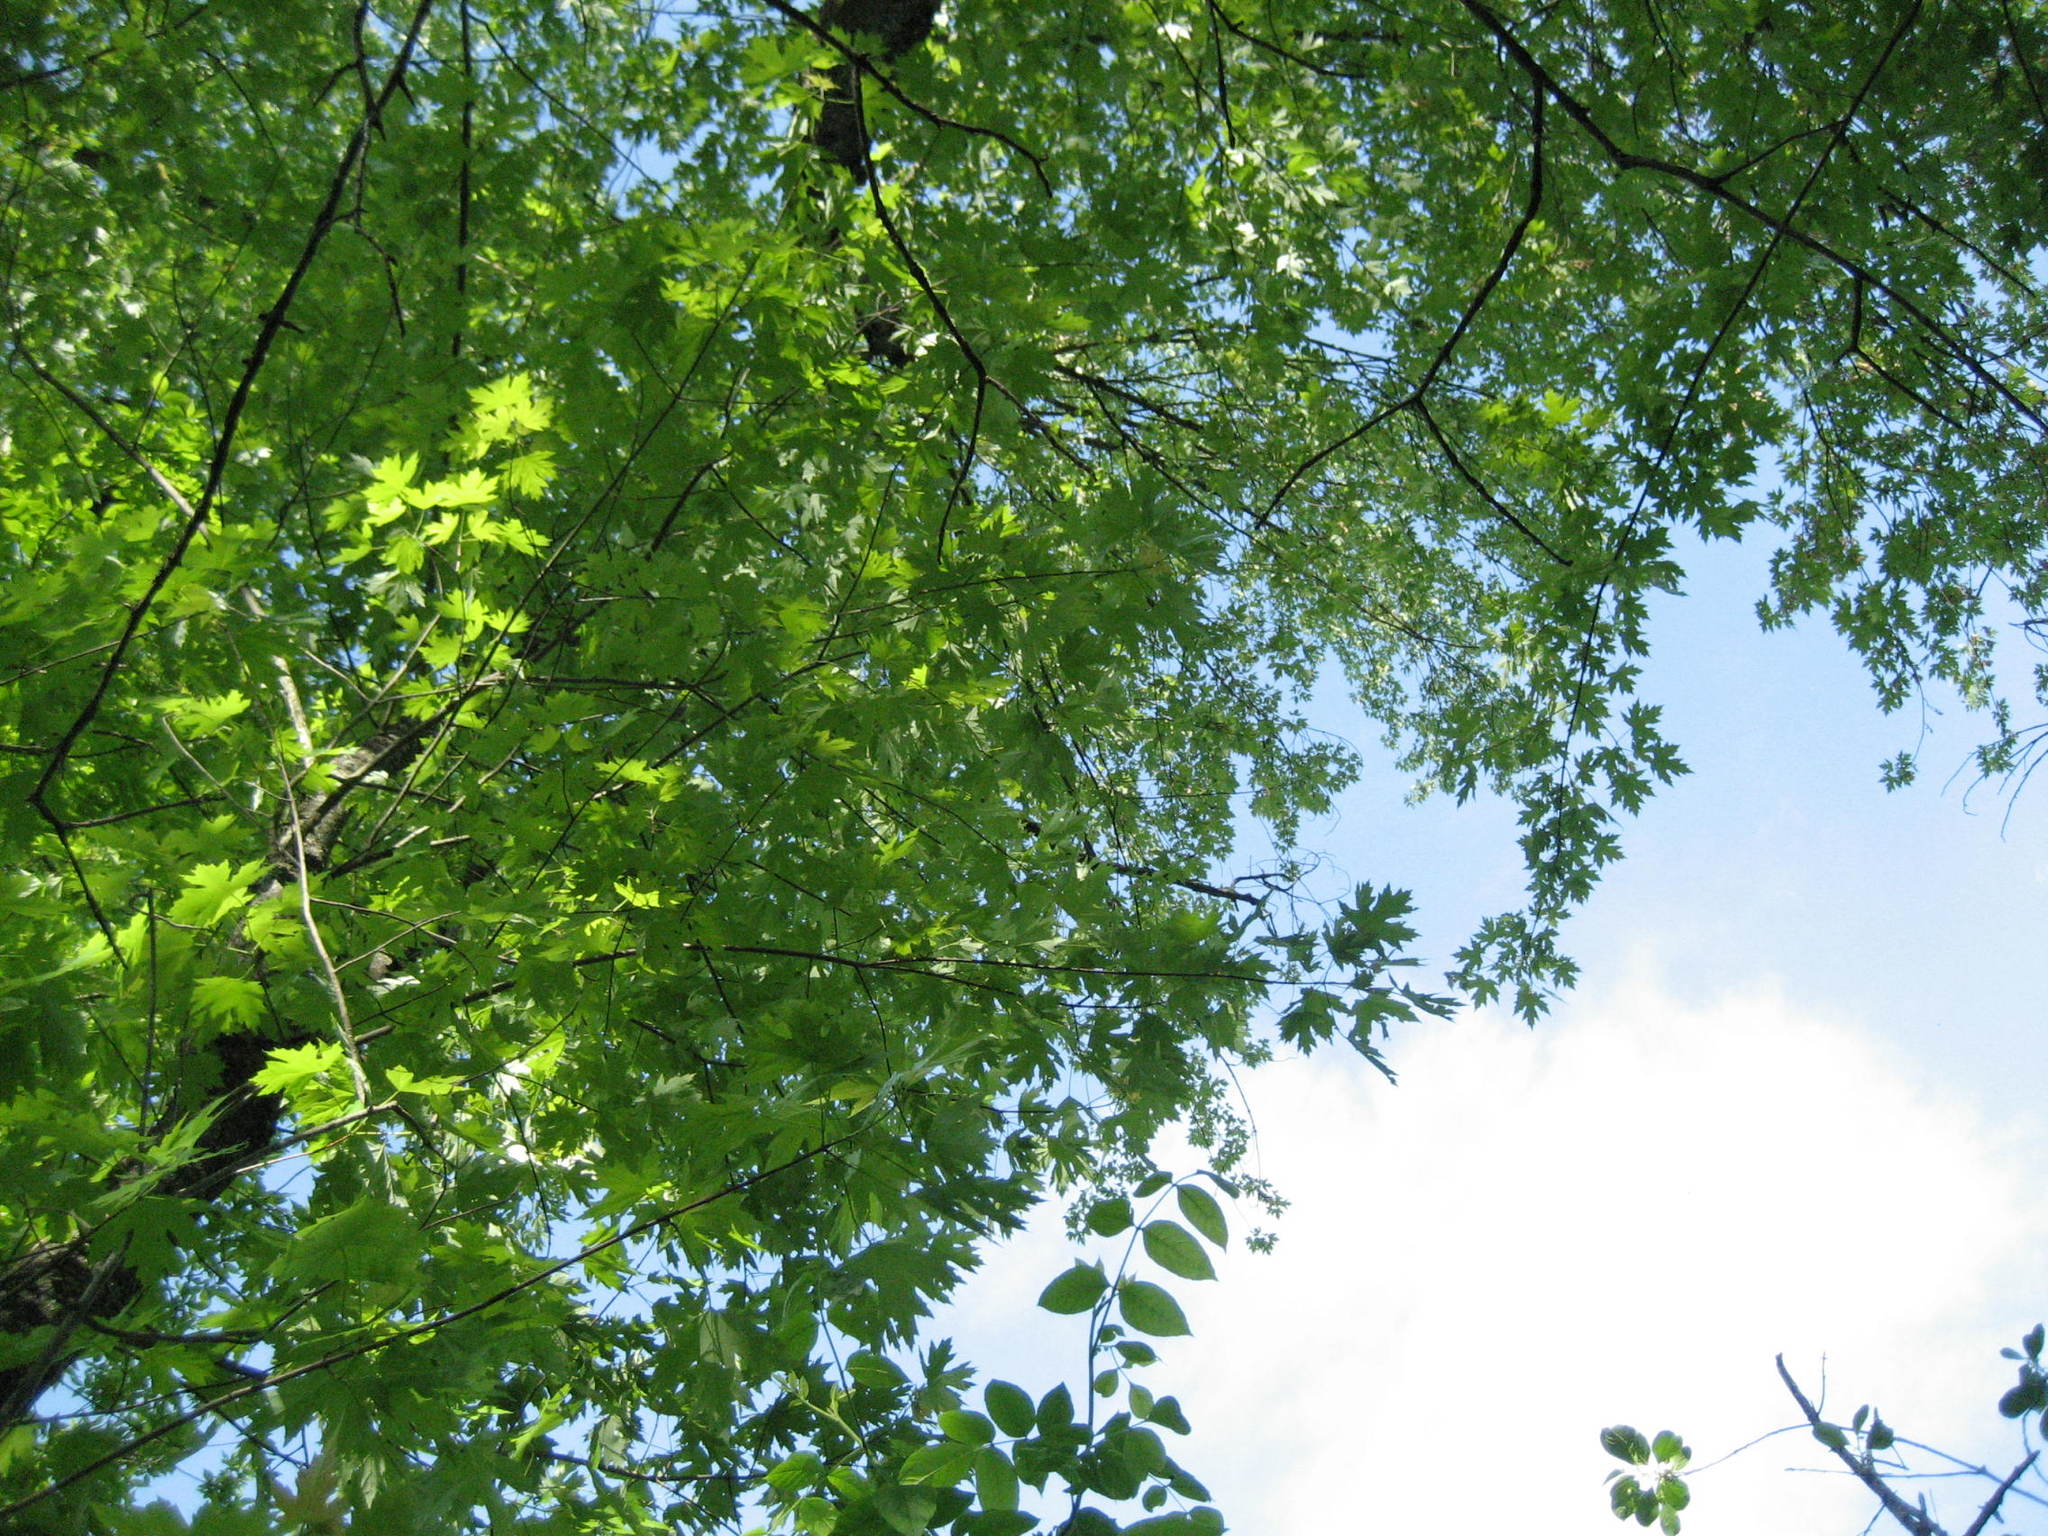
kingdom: Plantae
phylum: Tracheophyta
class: Magnoliopsida
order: Sapindales
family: Sapindaceae
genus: Acer
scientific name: Acer saccharinum
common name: Silver maple
